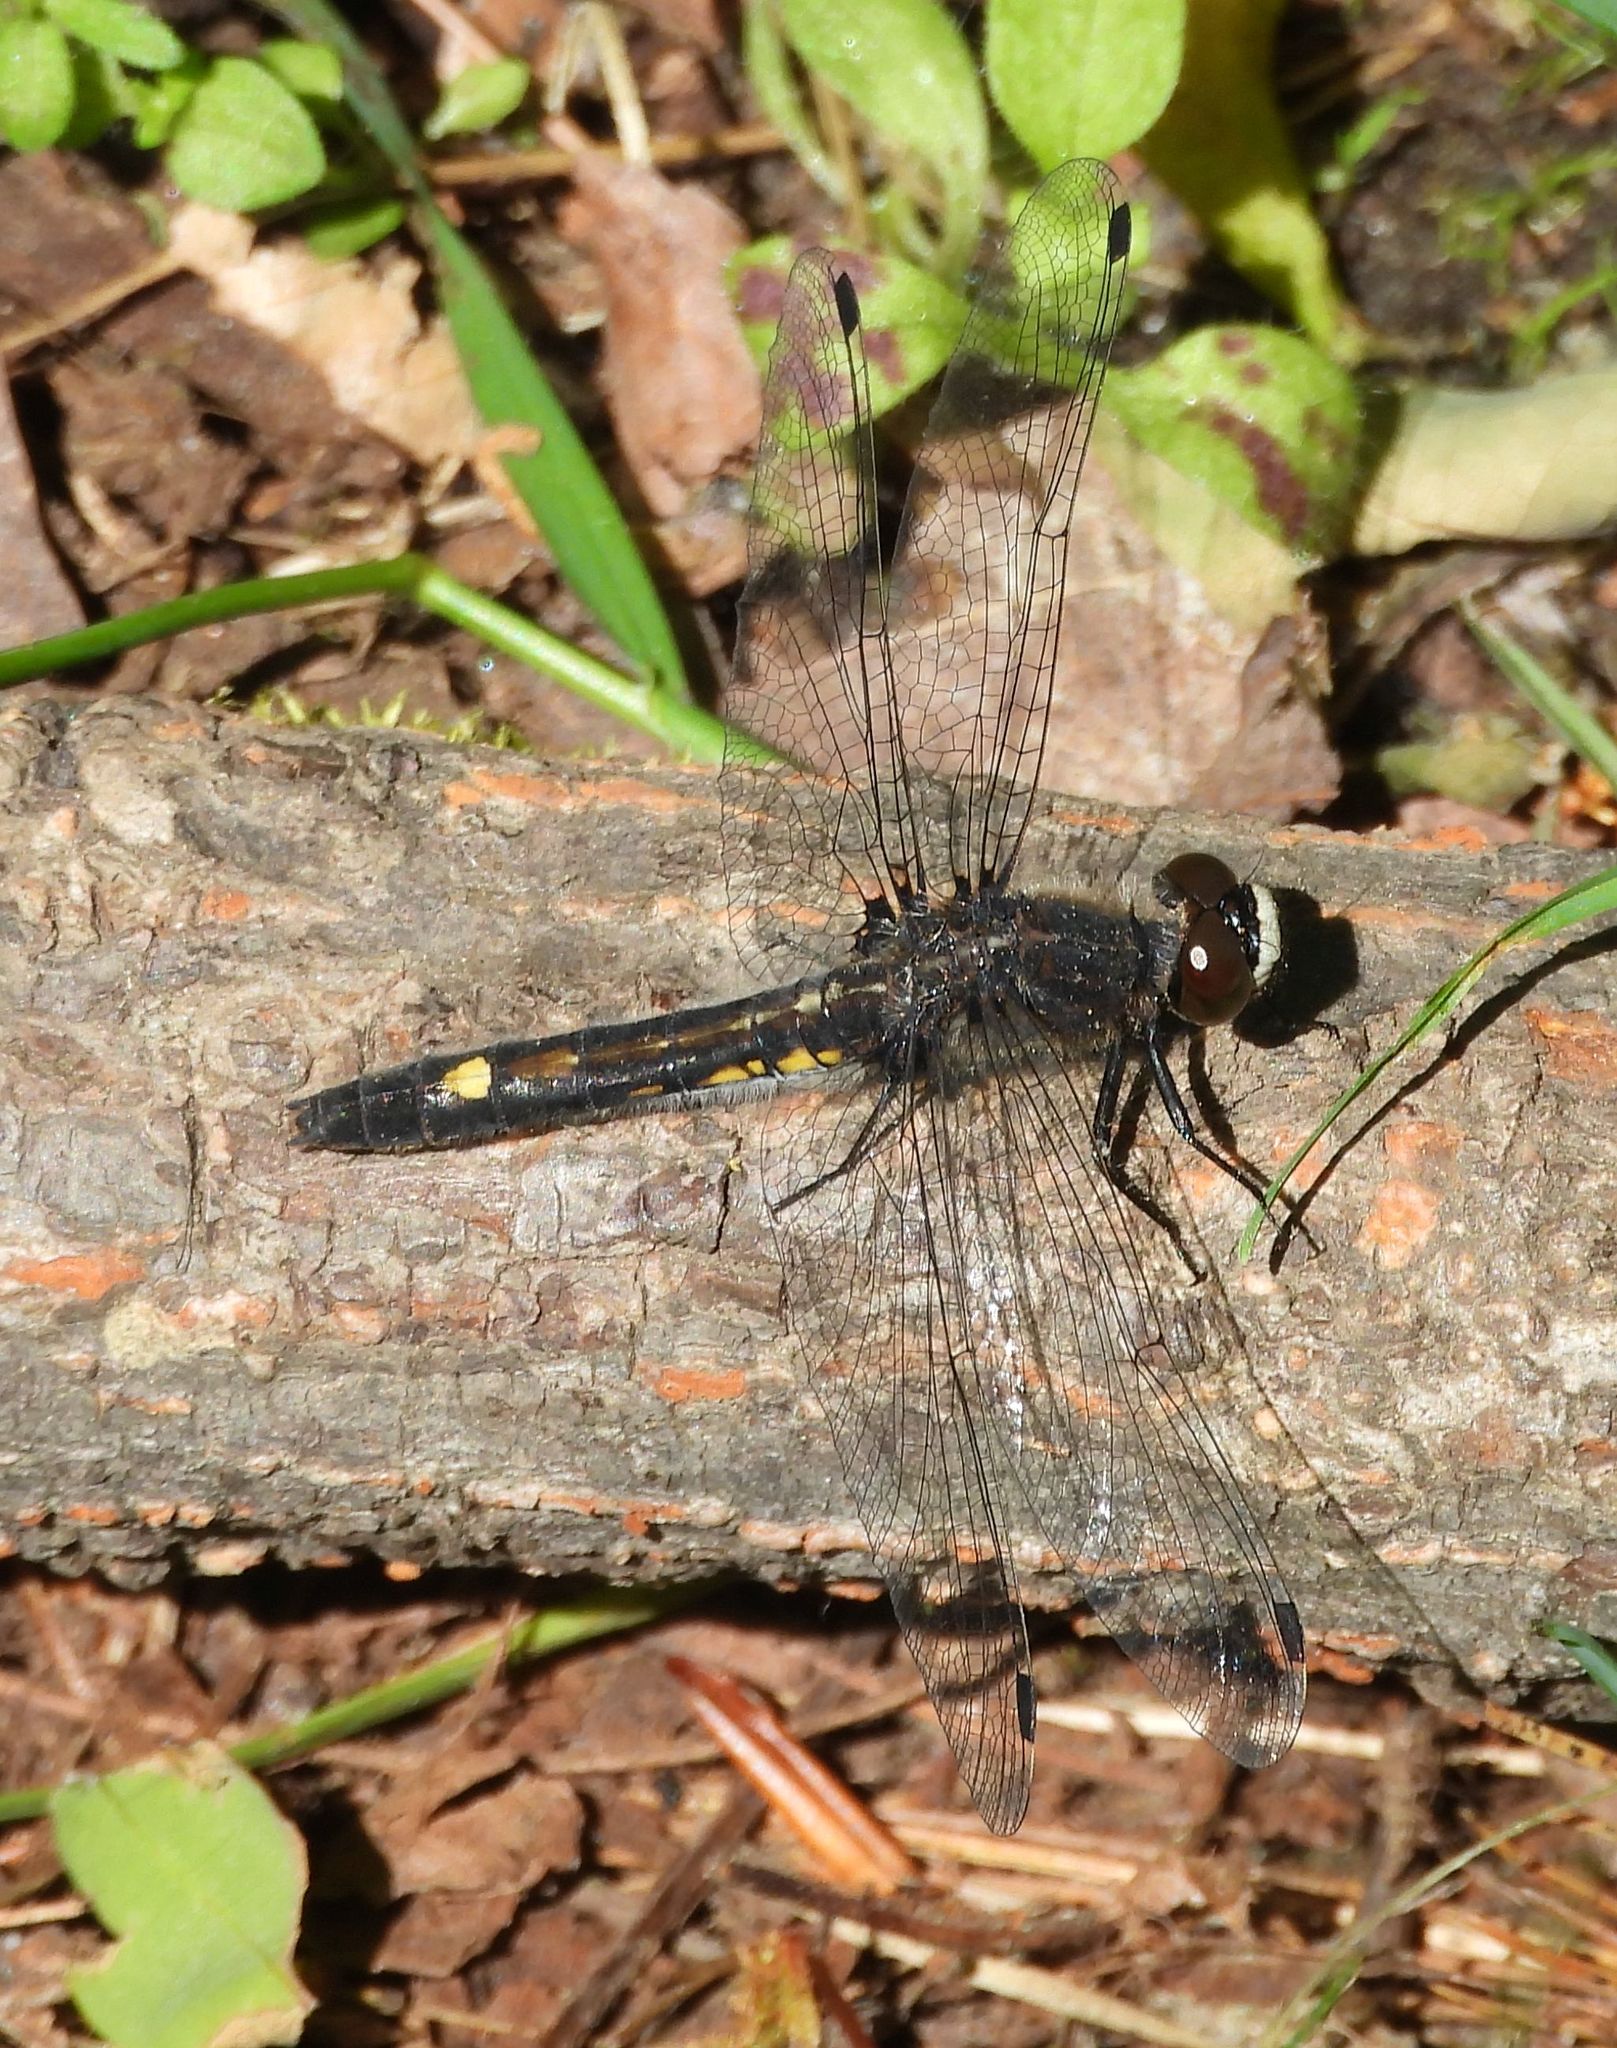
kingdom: Animalia
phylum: Arthropoda
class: Insecta
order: Odonata
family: Libellulidae
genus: Leucorrhinia
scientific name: Leucorrhinia intacta
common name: Dot-tailed whiteface
